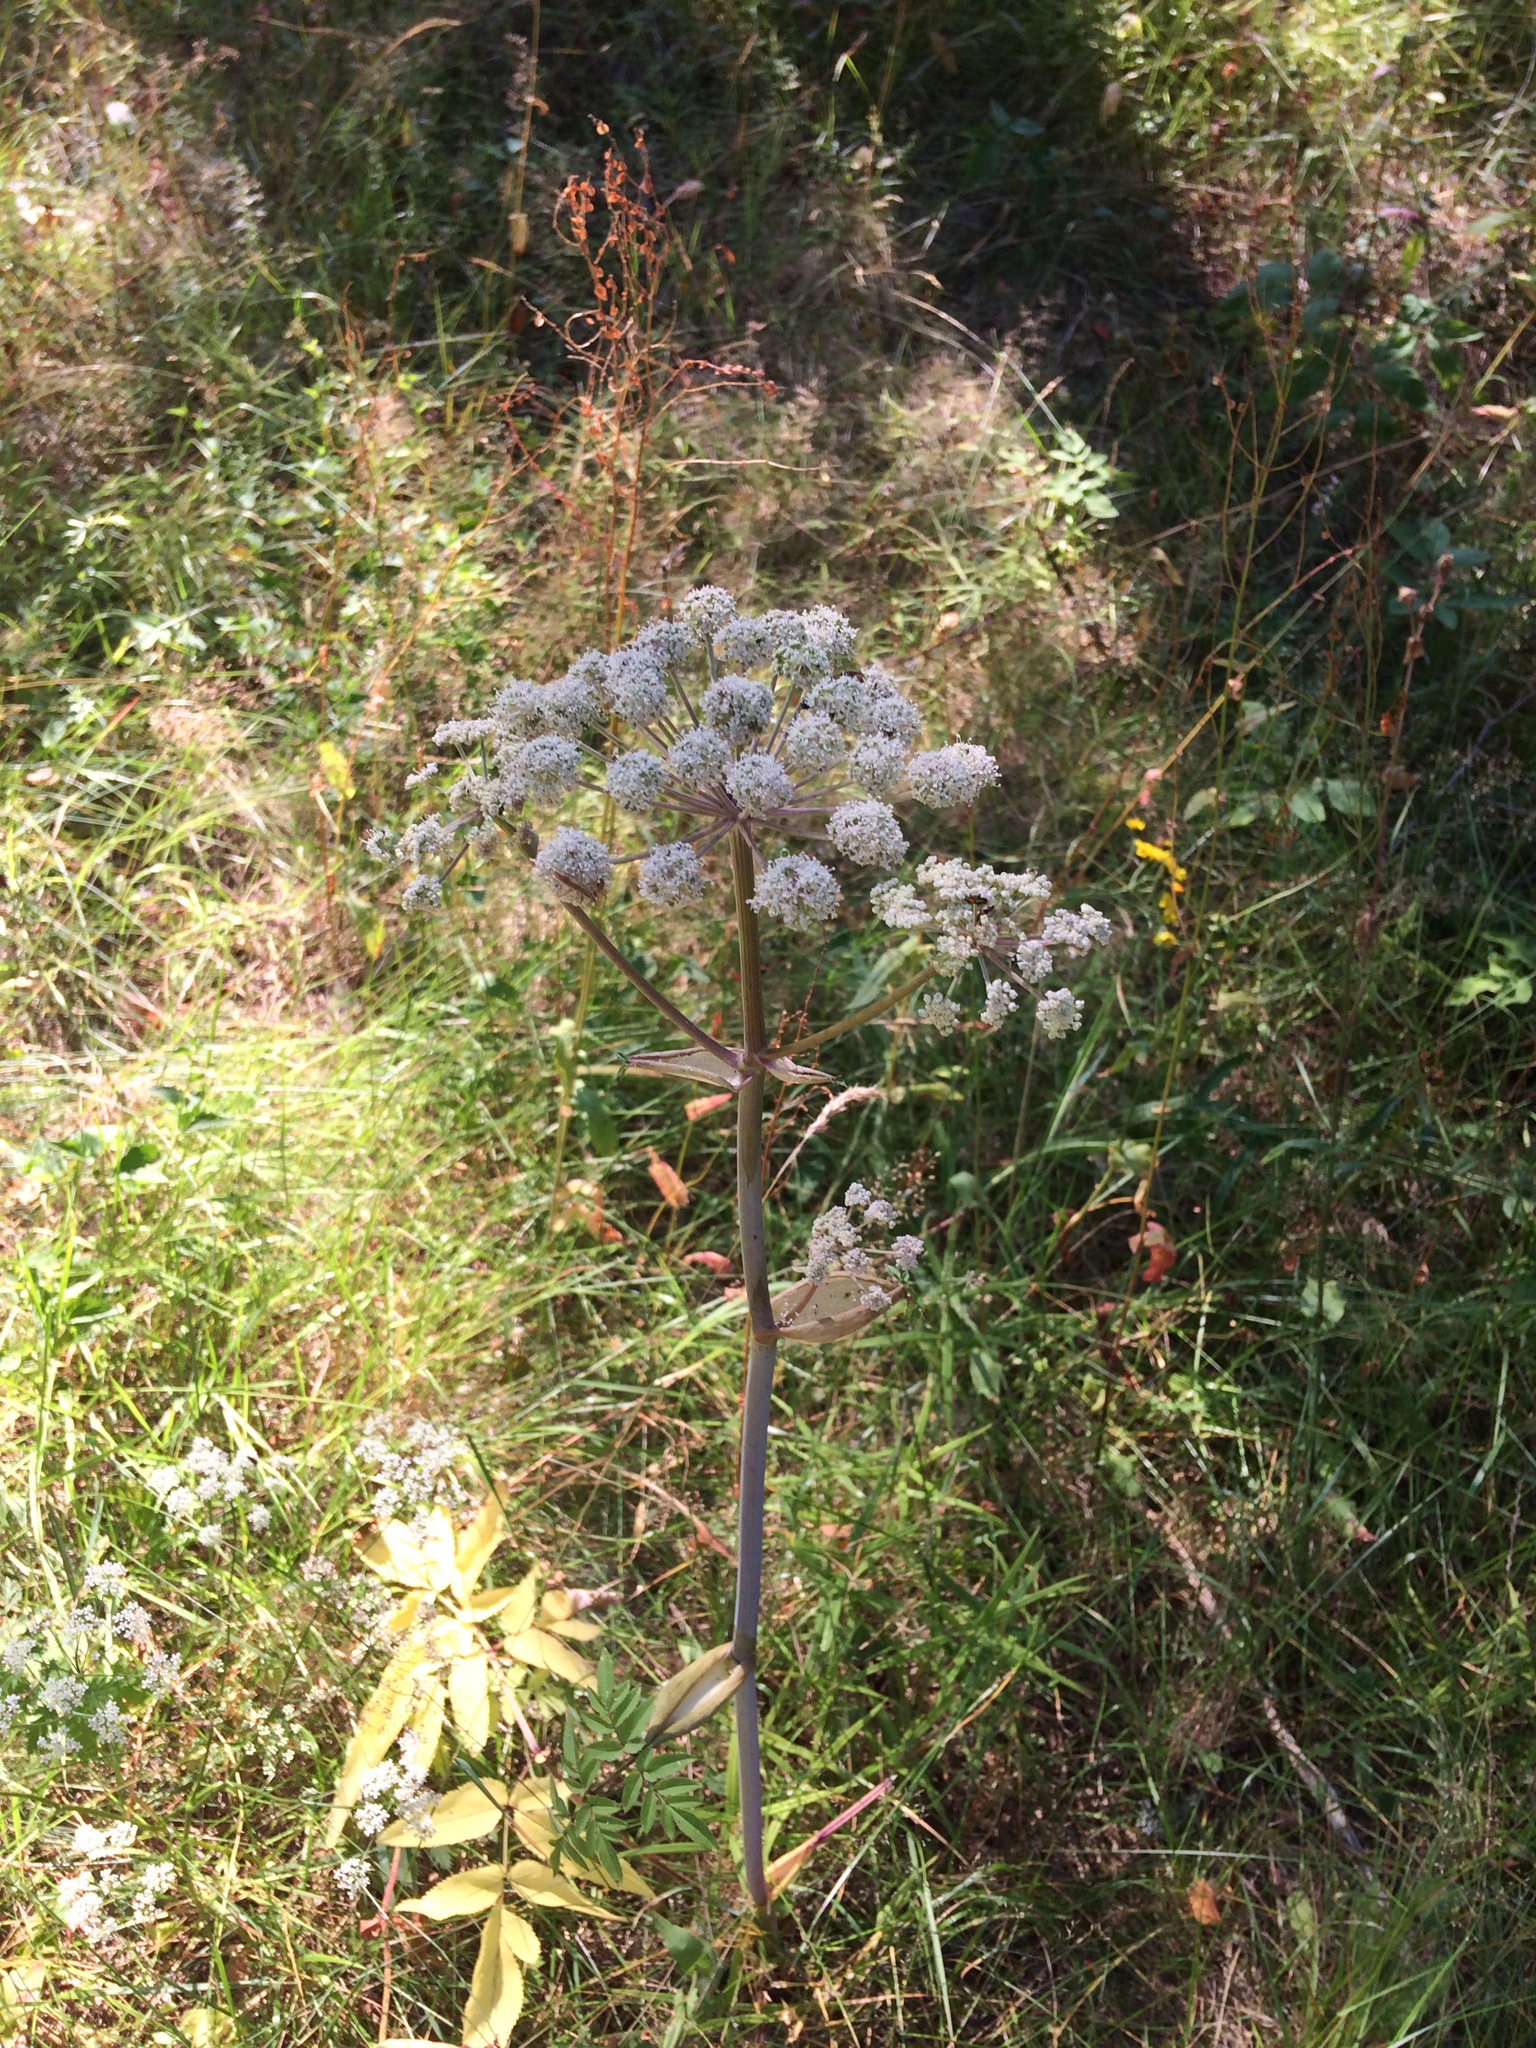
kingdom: Plantae
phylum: Tracheophyta
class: Magnoliopsida
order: Apiales
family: Apiaceae
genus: Angelica
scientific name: Angelica sylvestris
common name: Wild angelica
